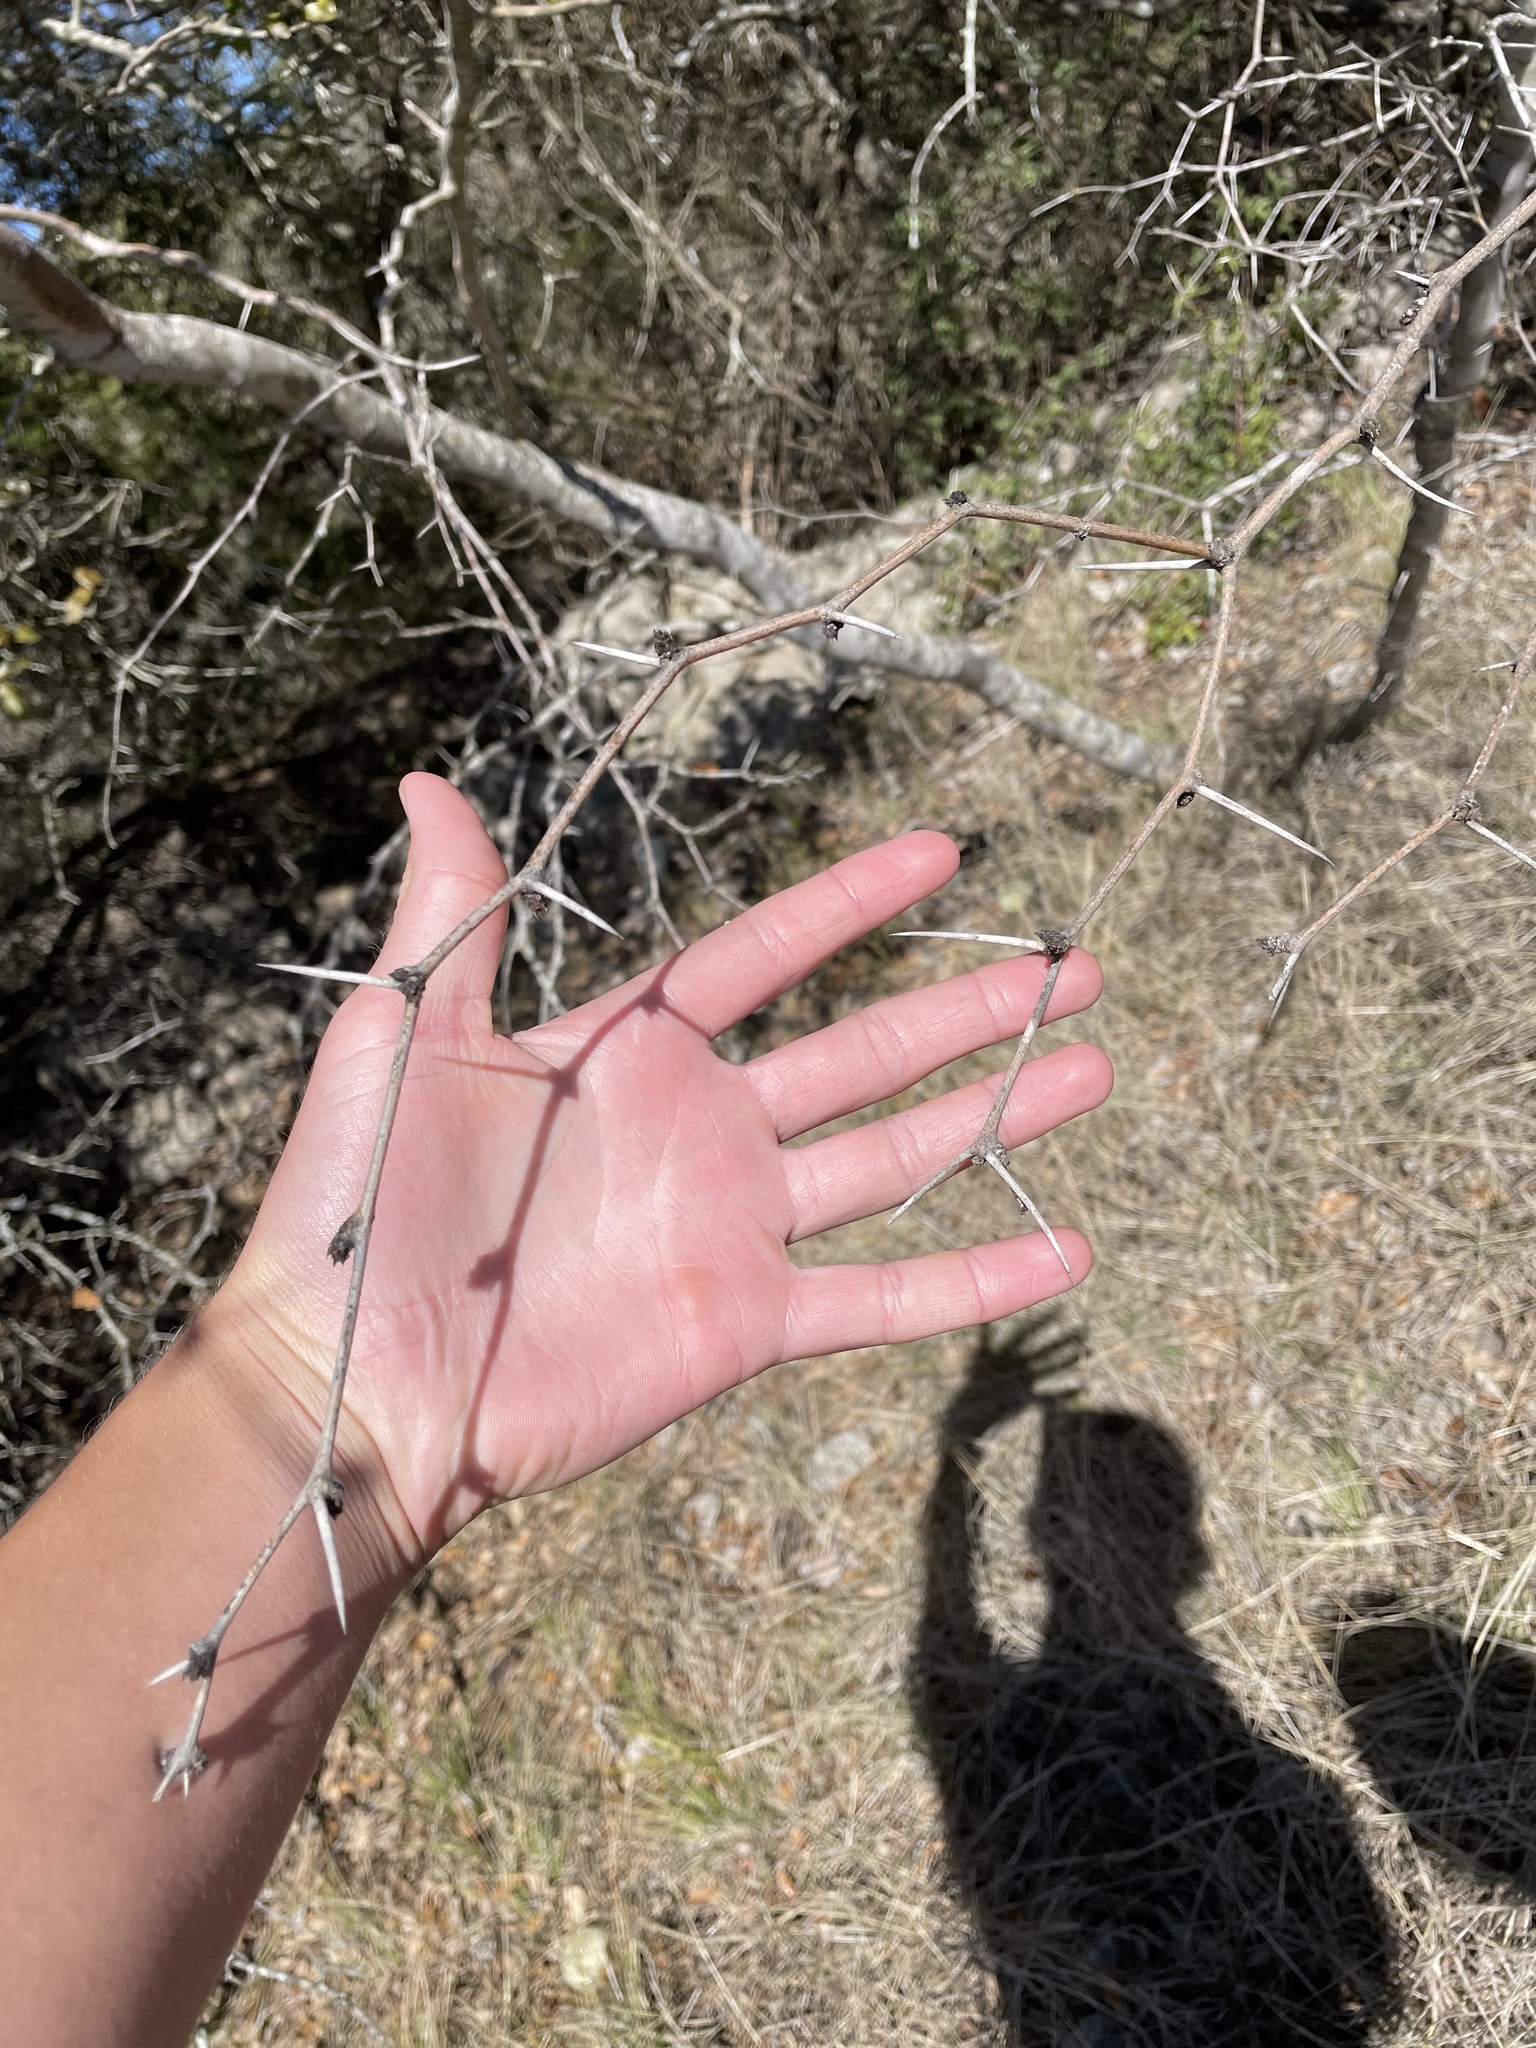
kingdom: Plantae
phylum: Tracheophyta
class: Magnoliopsida
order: Fabales
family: Fabaceae
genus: Prosopis
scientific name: Prosopis glandulosa
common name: Honey mesquite
